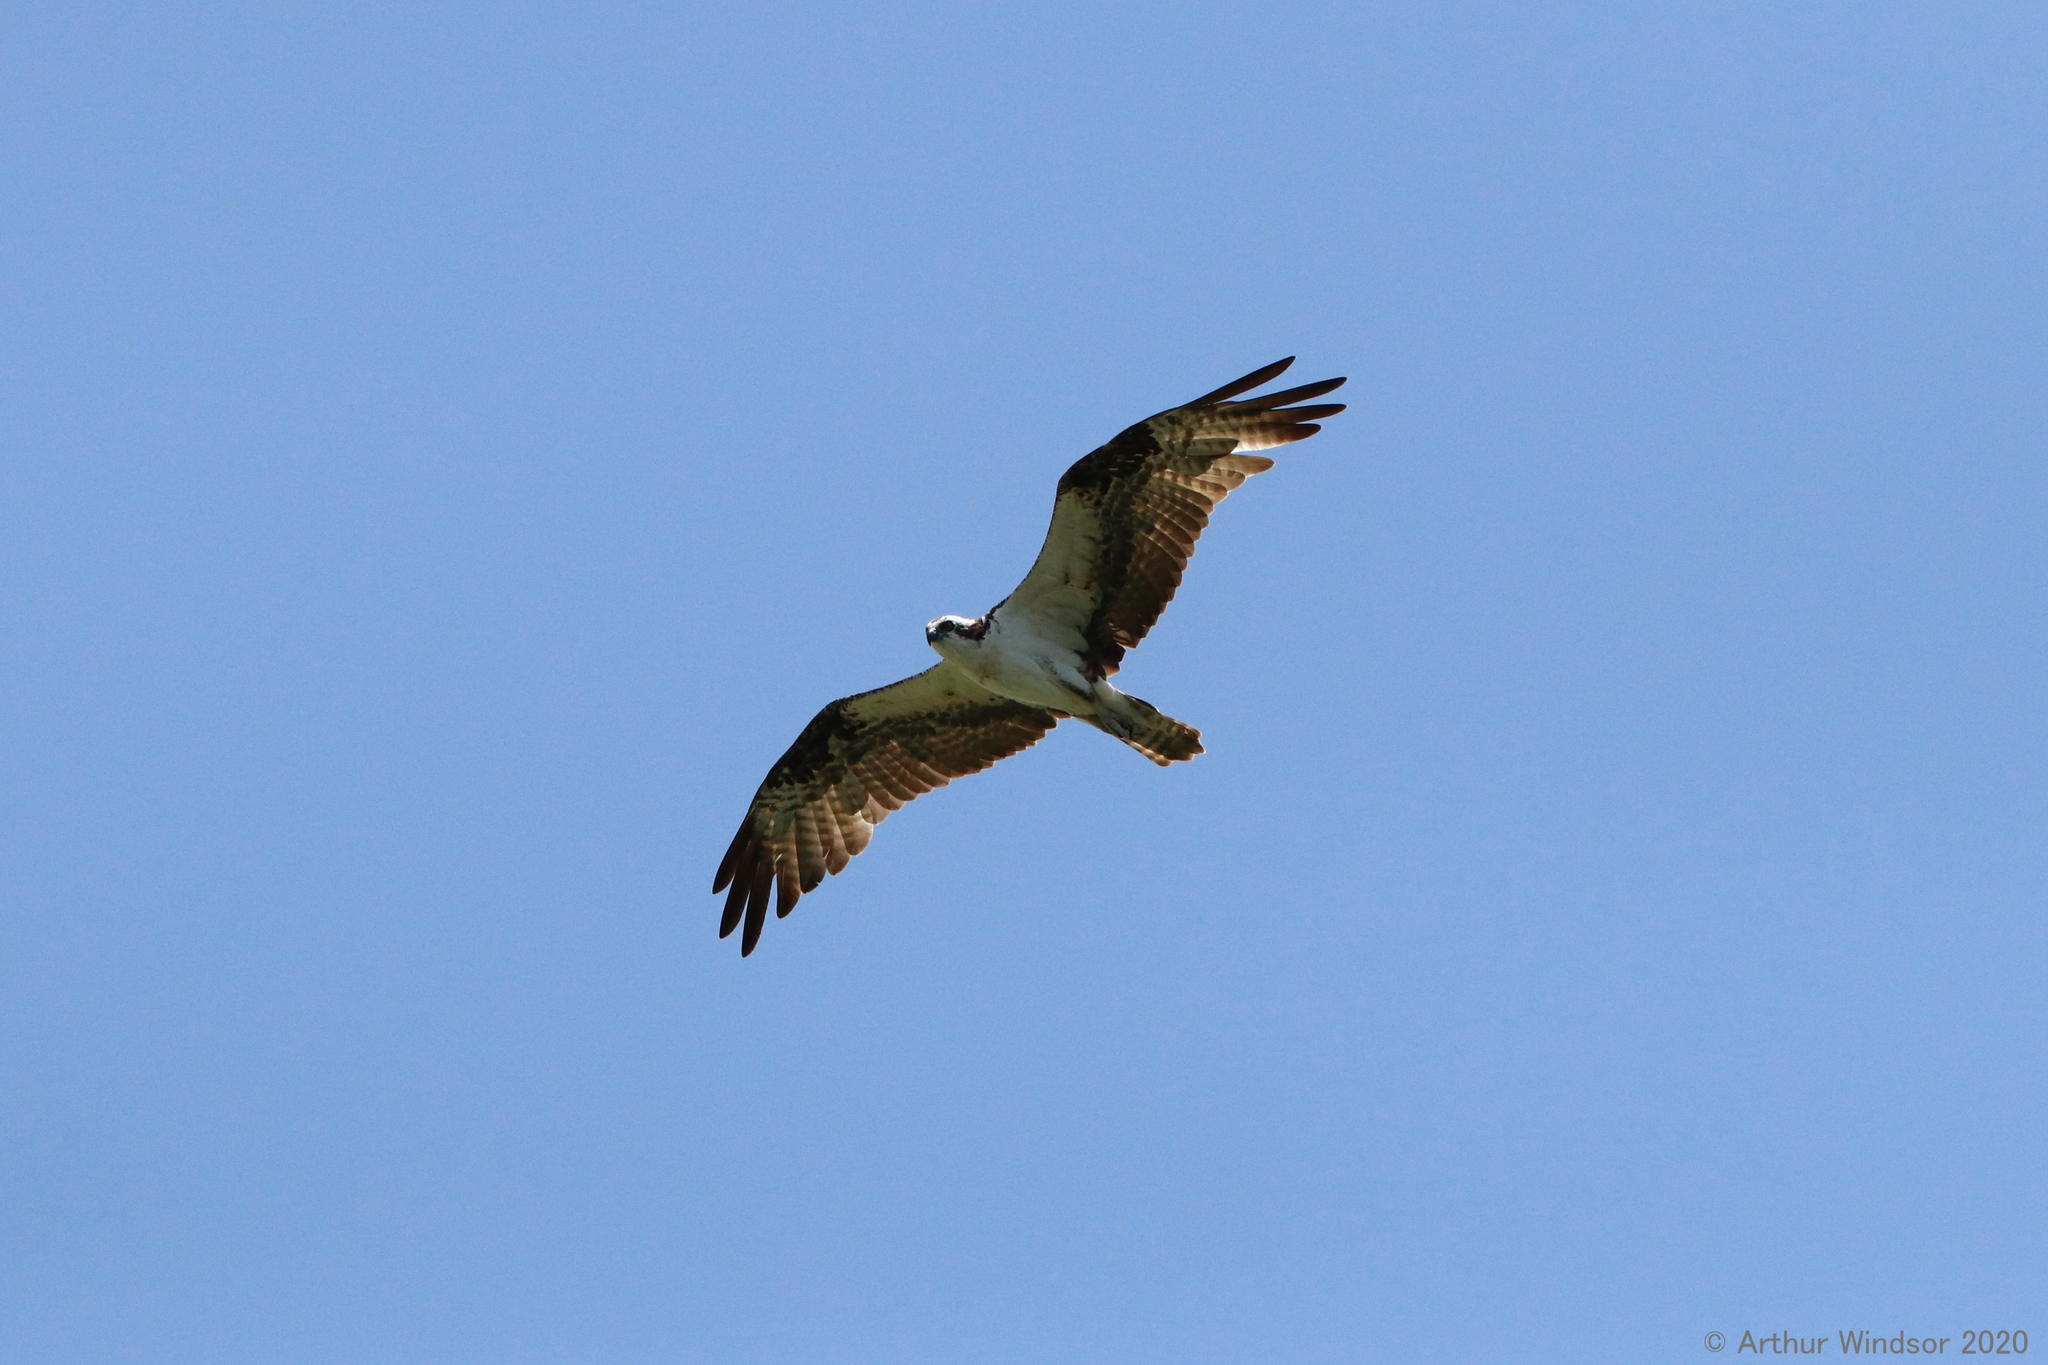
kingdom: Animalia
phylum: Chordata
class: Aves
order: Accipitriformes
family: Pandionidae
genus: Pandion
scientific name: Pandion haliaetus
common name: Osprey
